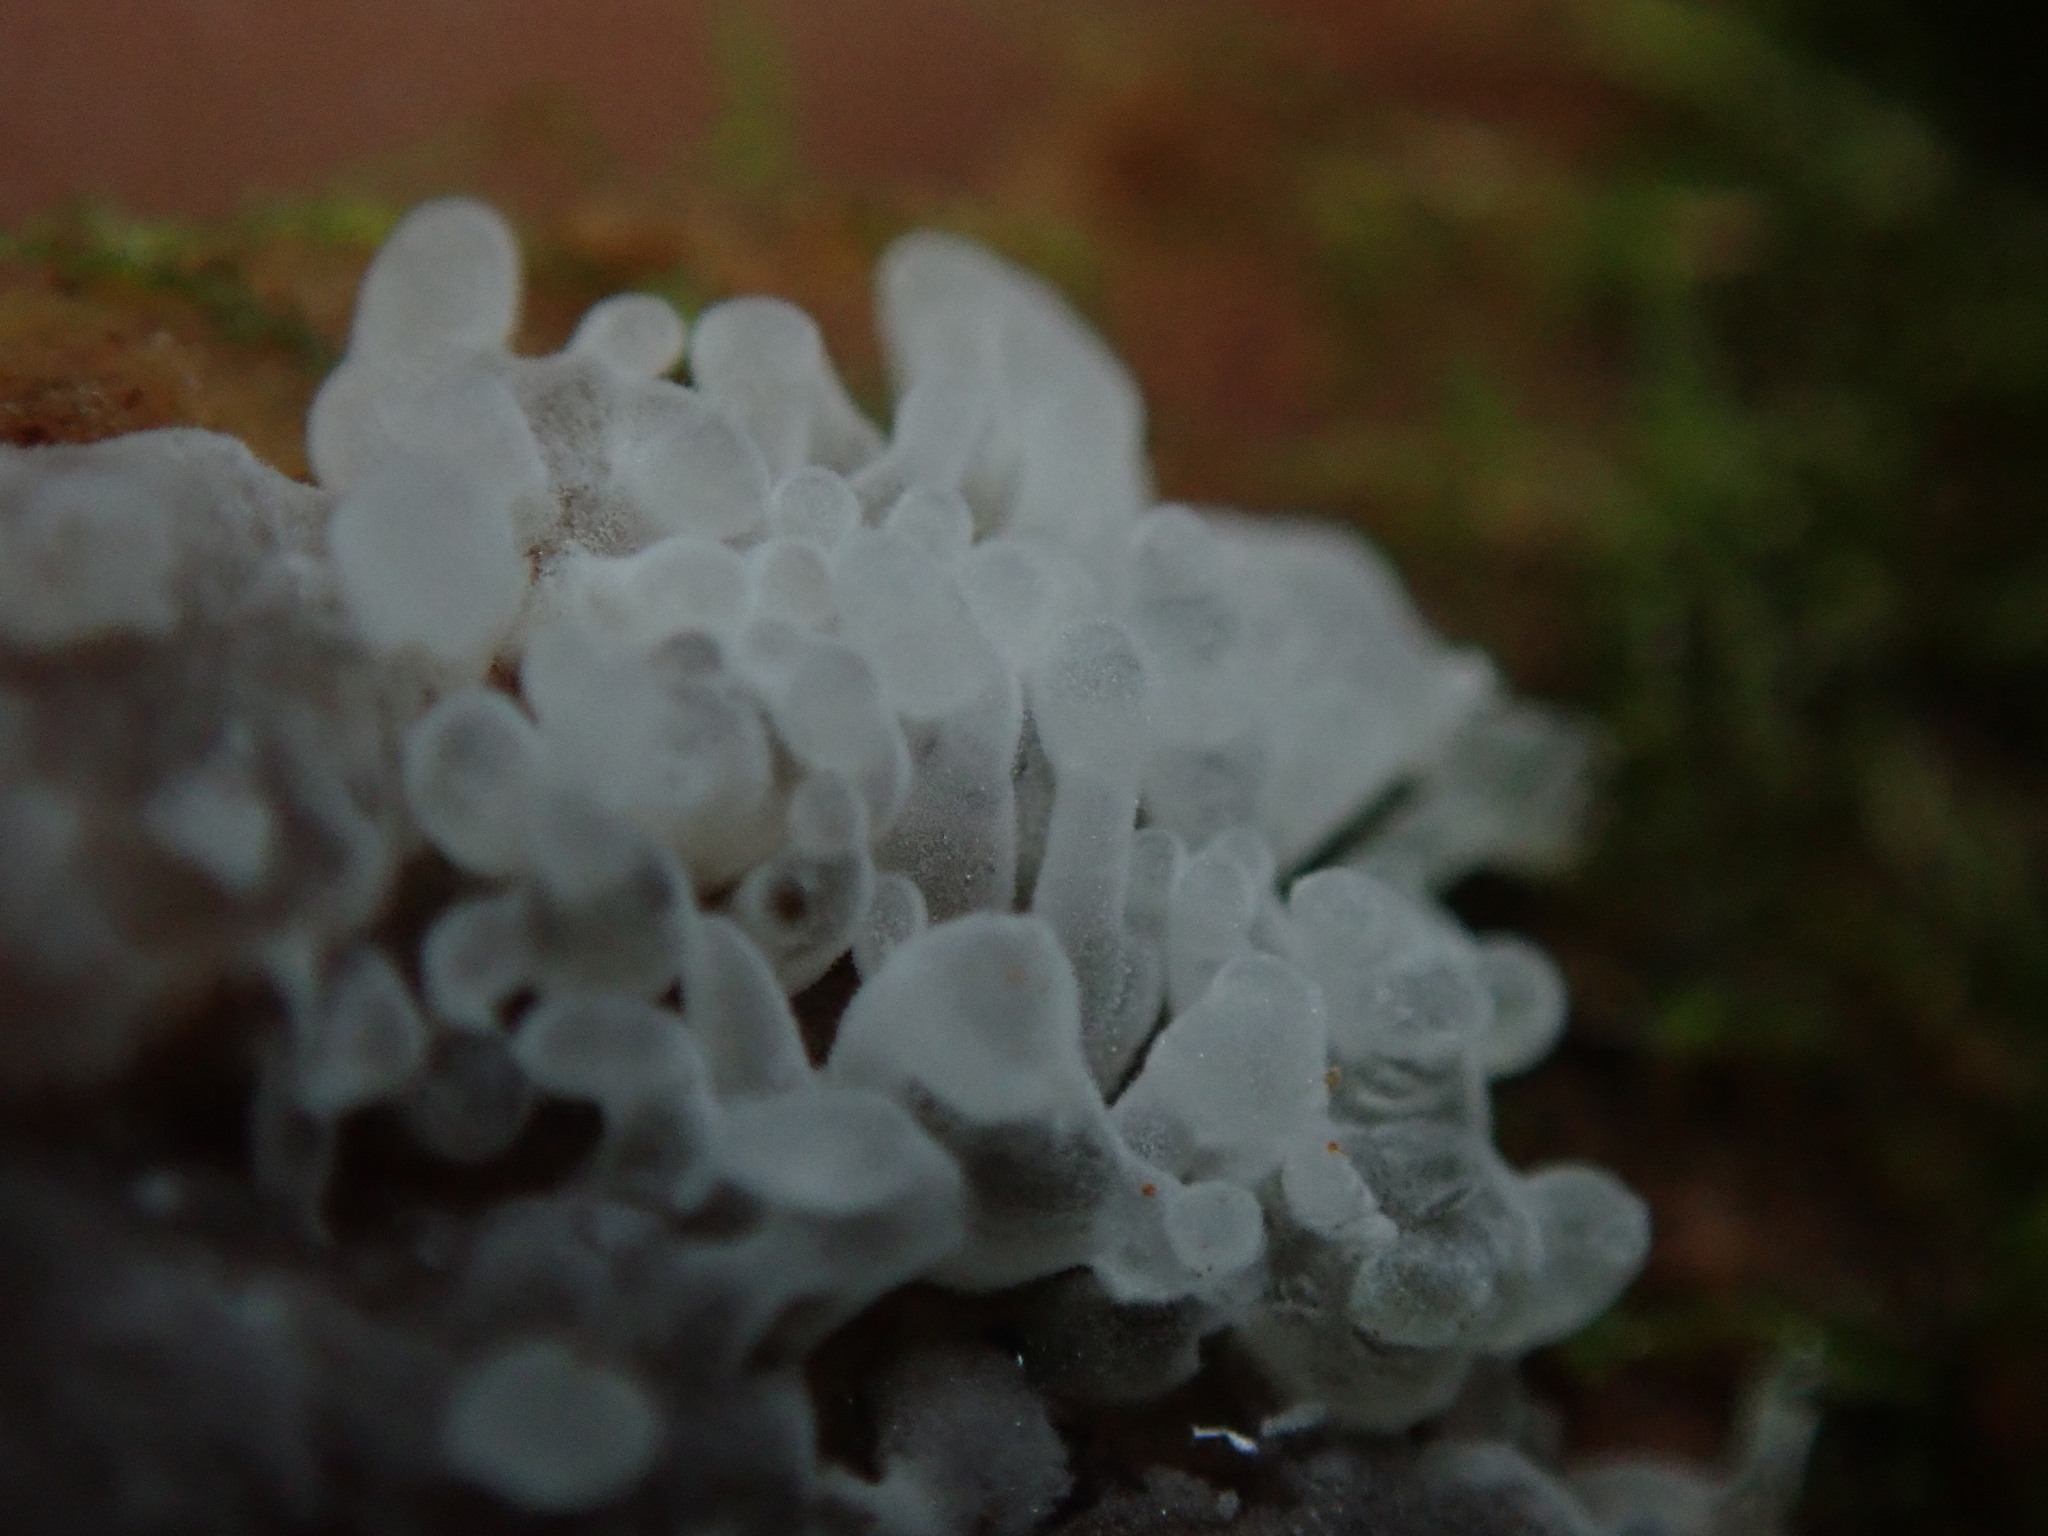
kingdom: Protozoa
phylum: Mycetozoa
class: Protosteliomycetes
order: Ceratiomyxales
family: Ceratiomyxaceae
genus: Ceratiomyxa
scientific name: Ceratiomyxa fruticulosa
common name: Honeycomb coral slime mold
